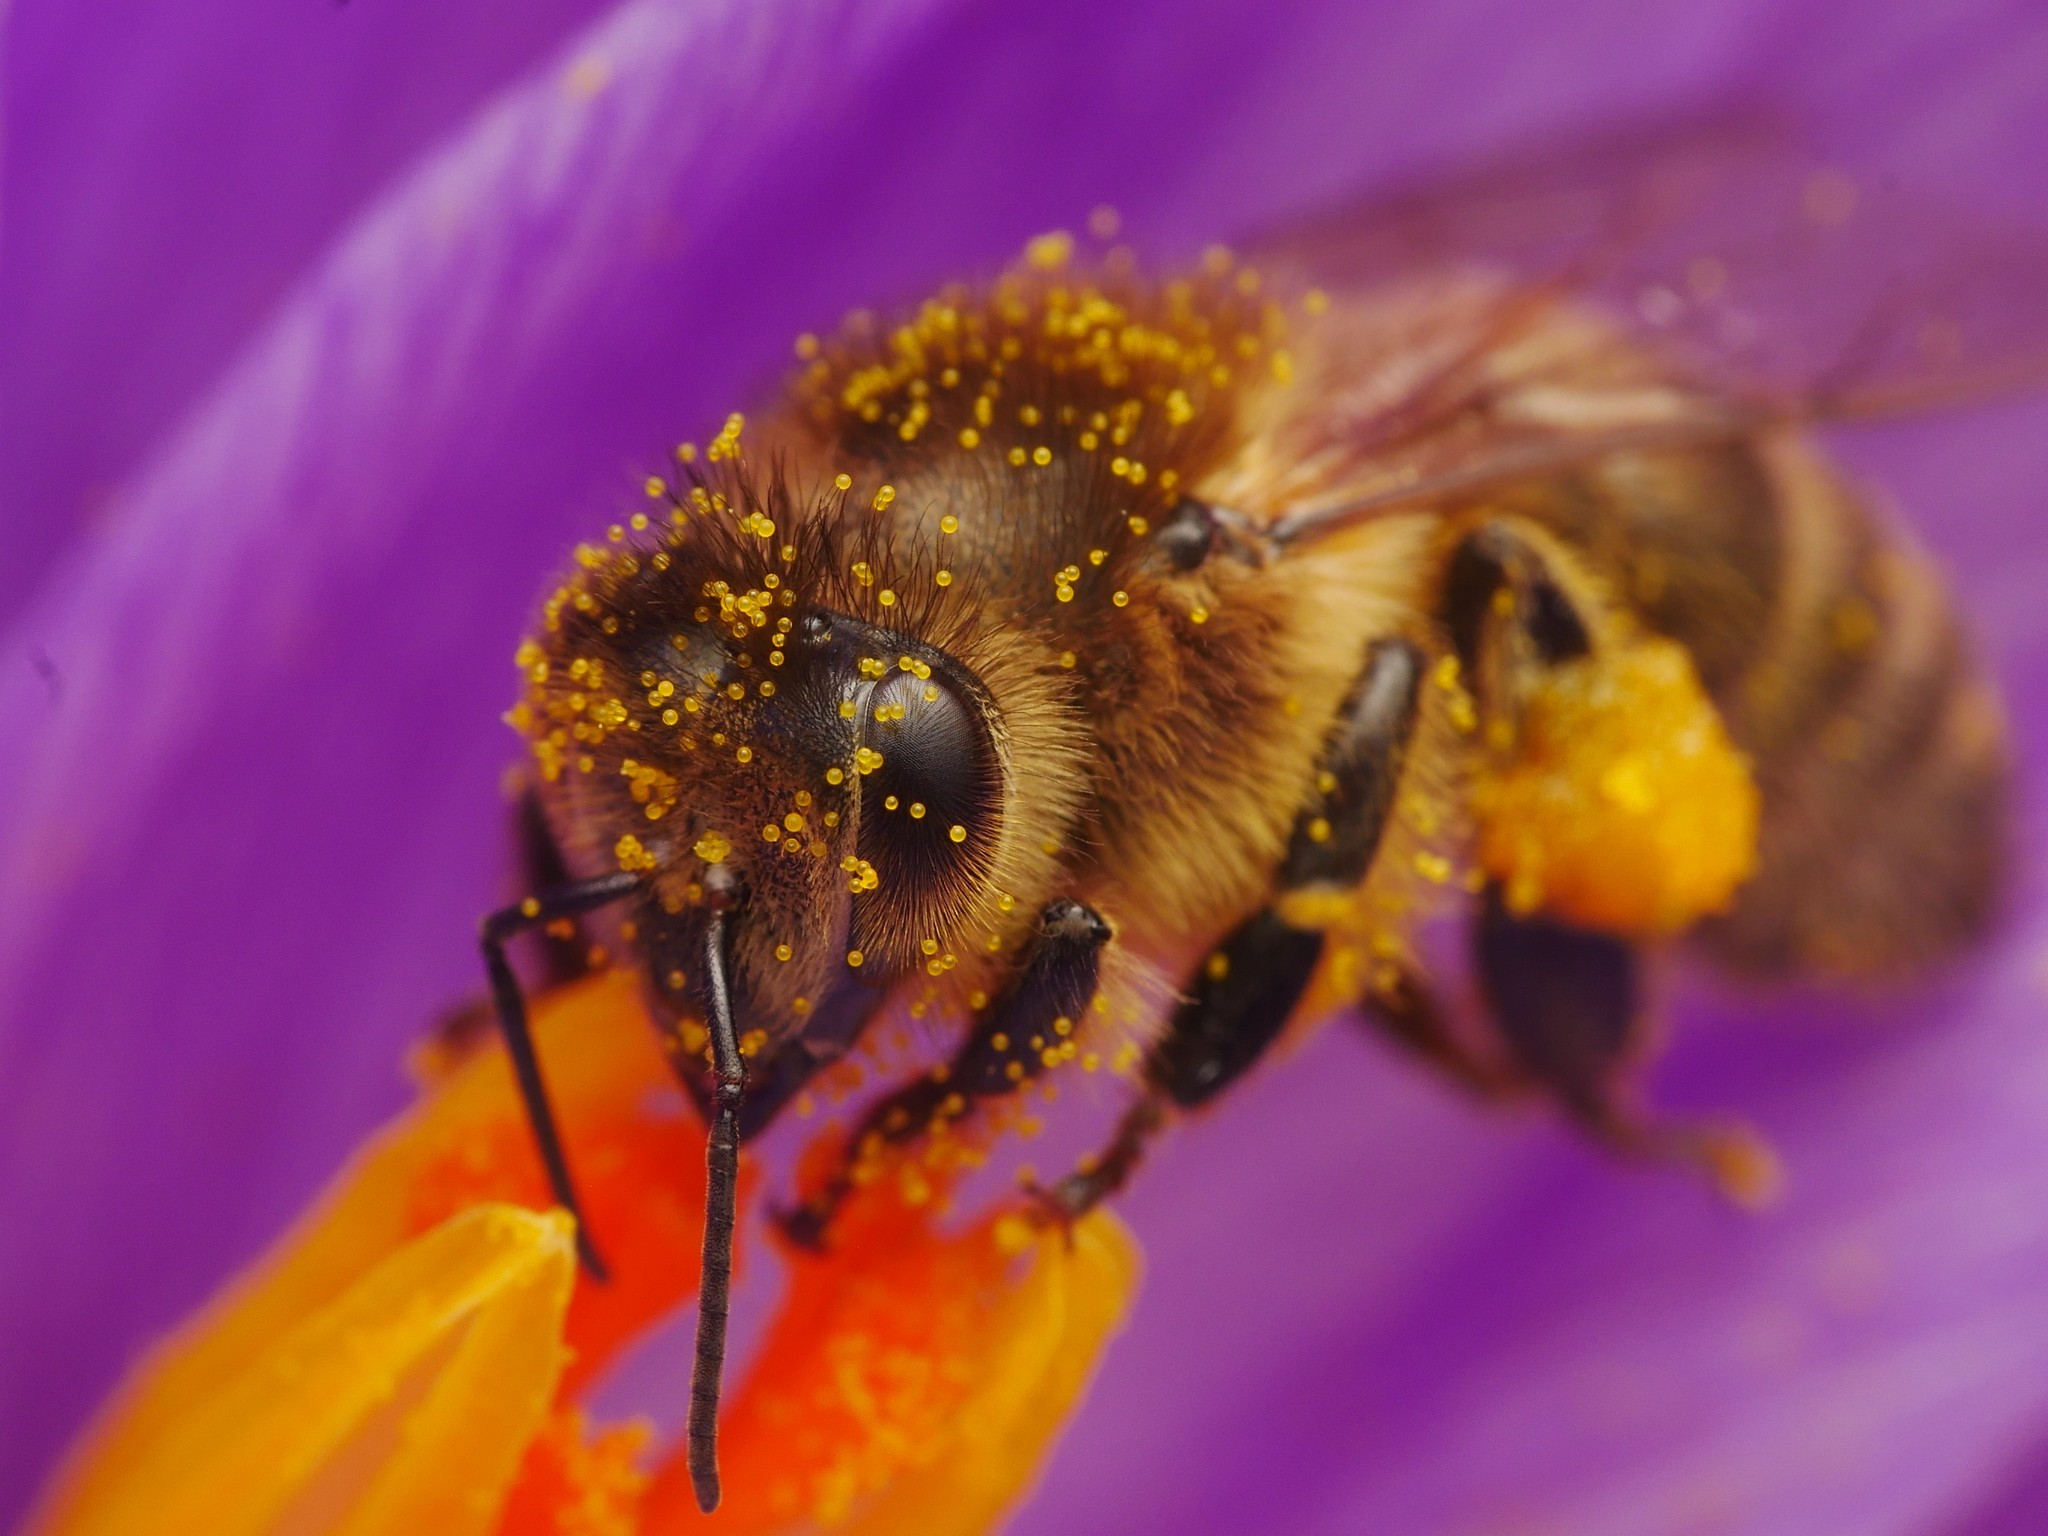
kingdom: Animalia
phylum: Arthropoda
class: Insecta
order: Hymenoptera
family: Apidae
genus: Apis
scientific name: Apis mellifera
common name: Honey bee
